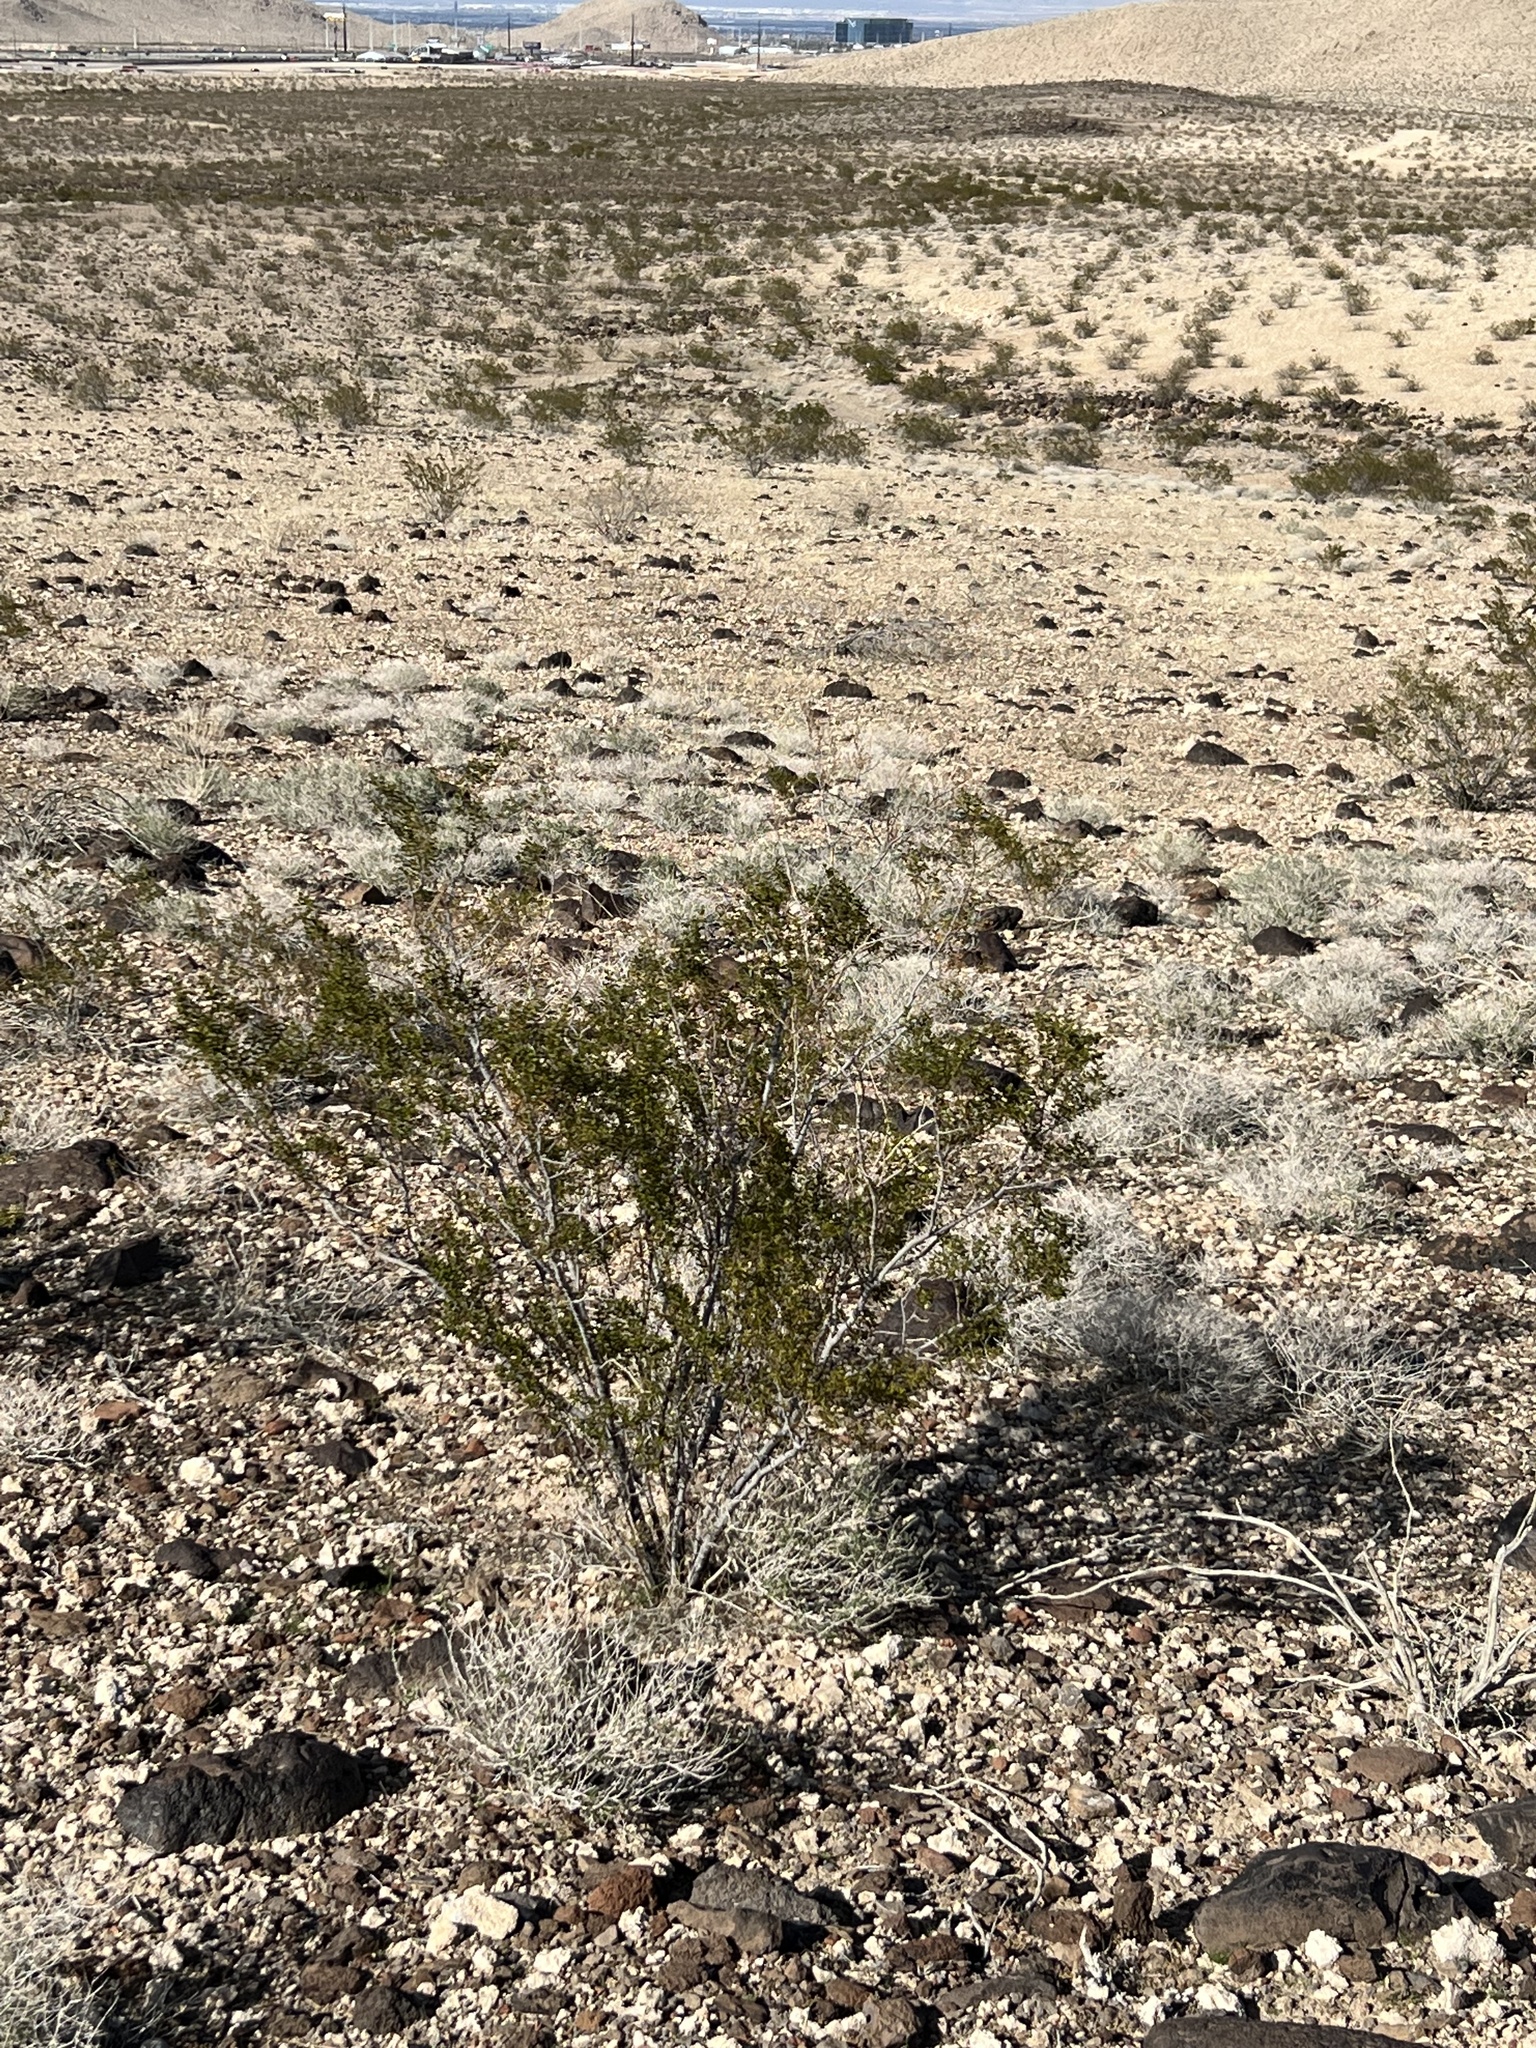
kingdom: Plantae
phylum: Tracheophyta
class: Magnoliopsida
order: Zygophyllales
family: Zygophyllaceae
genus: Larrea
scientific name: Larrea tridentata
